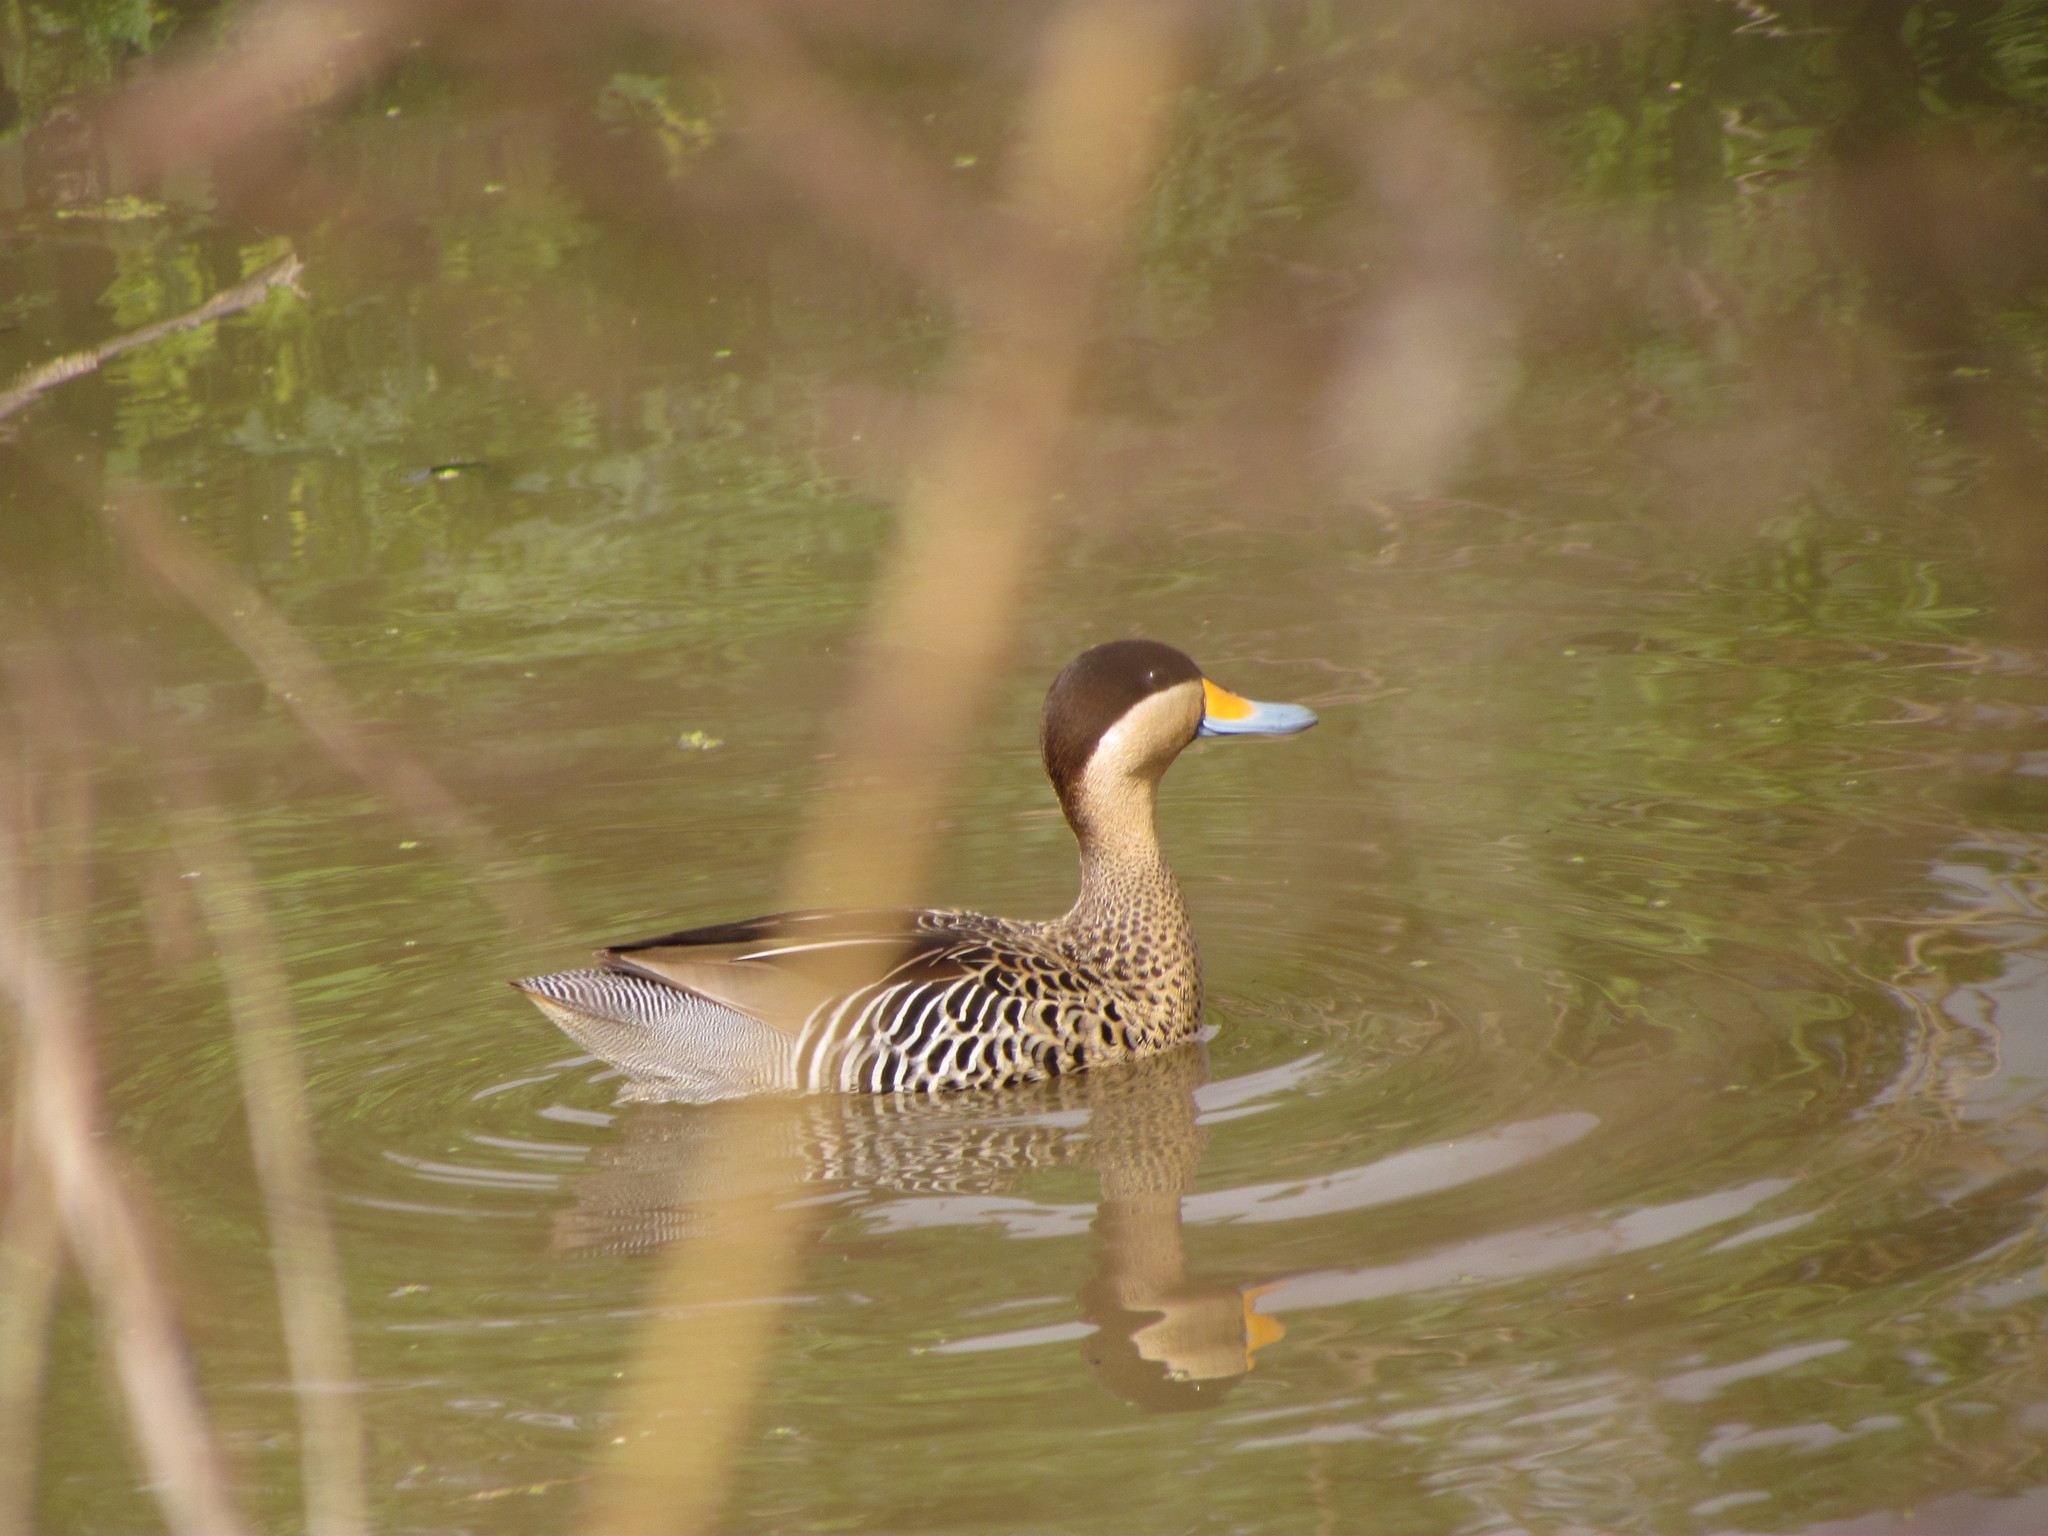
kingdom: Animalia
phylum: Chordata
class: Aves
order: Anseriformes
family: Anatidae
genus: Spatula
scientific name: Spatula versicolor
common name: Silver teal
